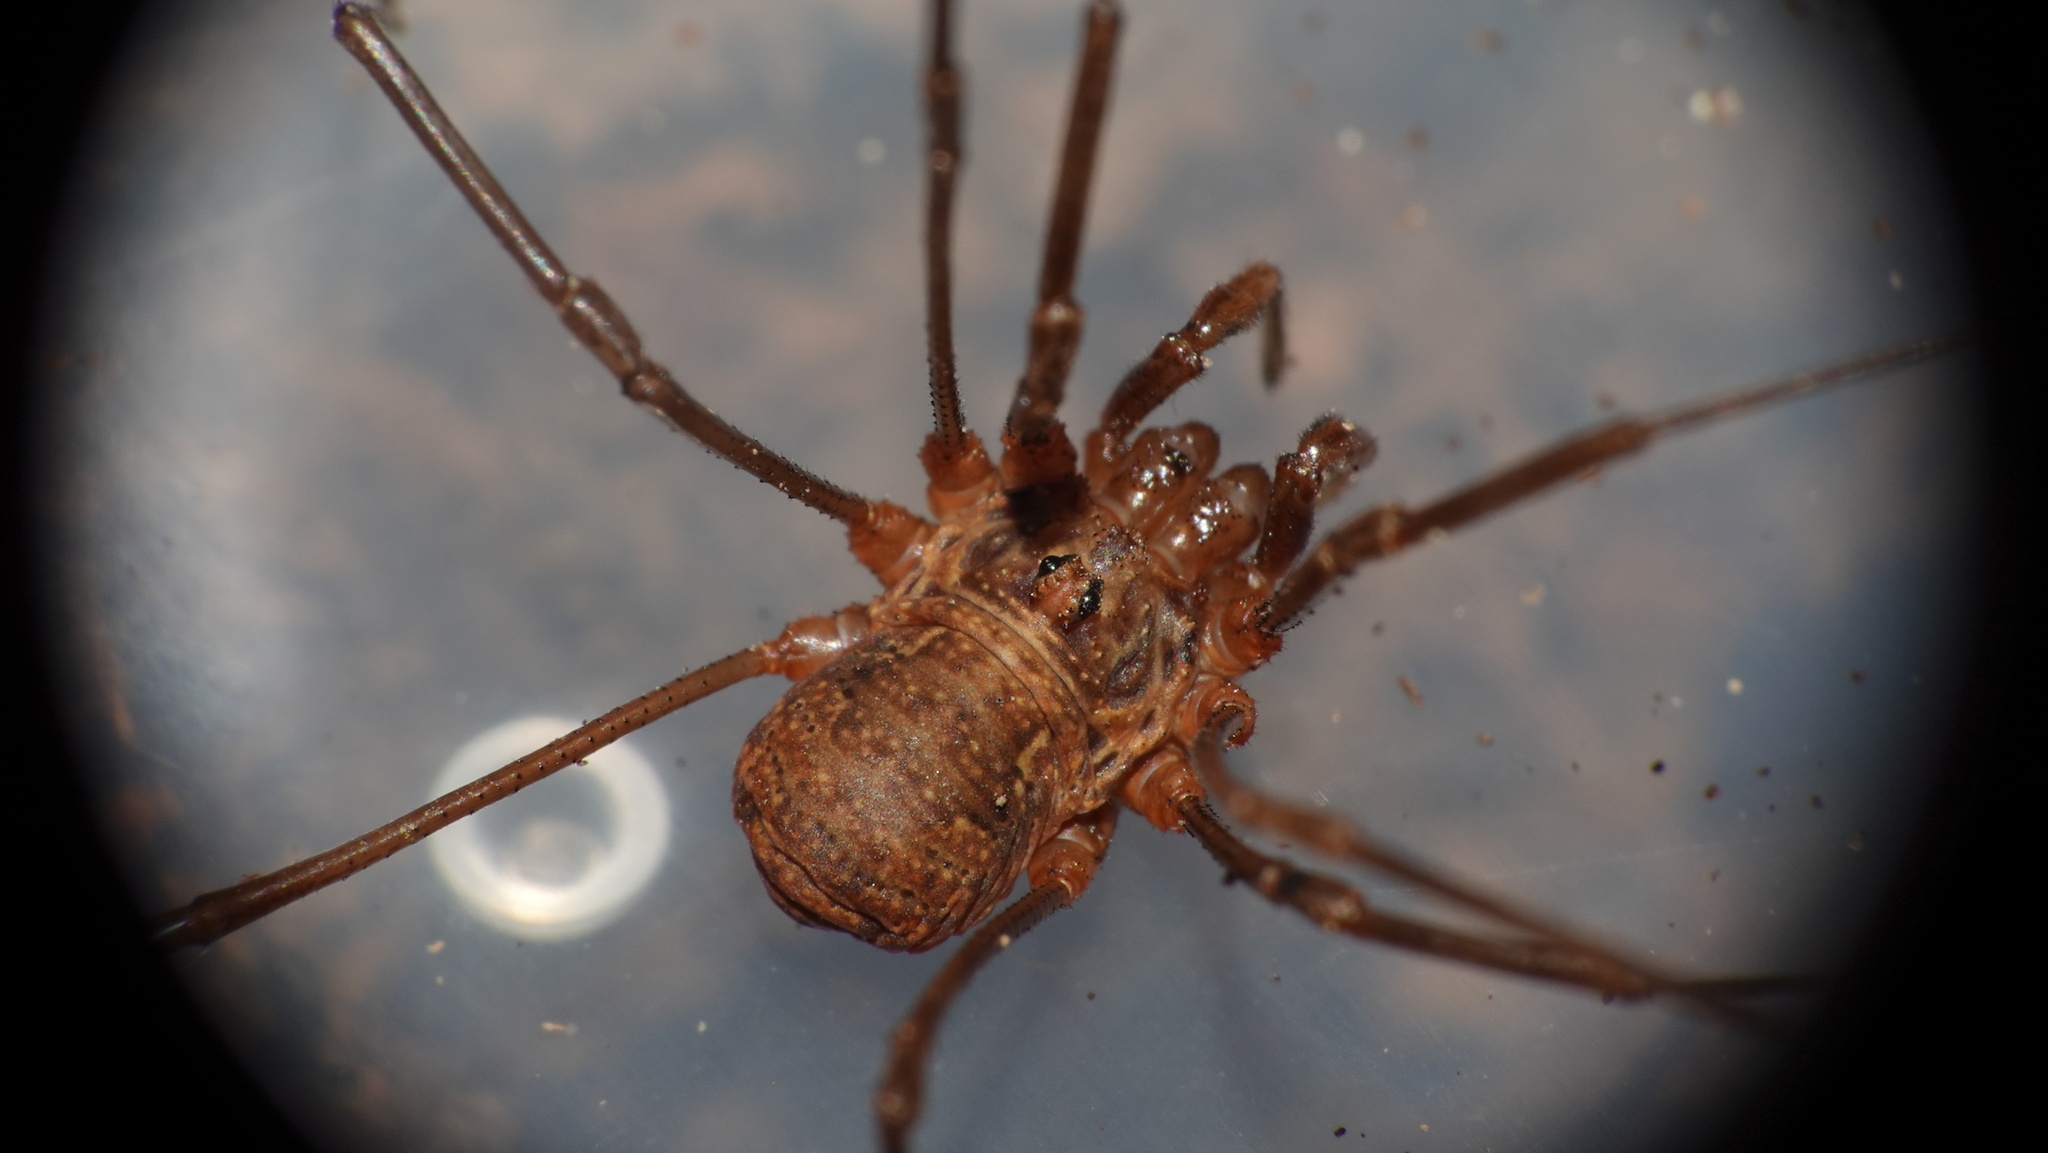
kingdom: Animalia
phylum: Arthropoda
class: Arachnida
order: Opiliones
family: Phalangiidae
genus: Dasylobus
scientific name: Dasylobus graniferus
